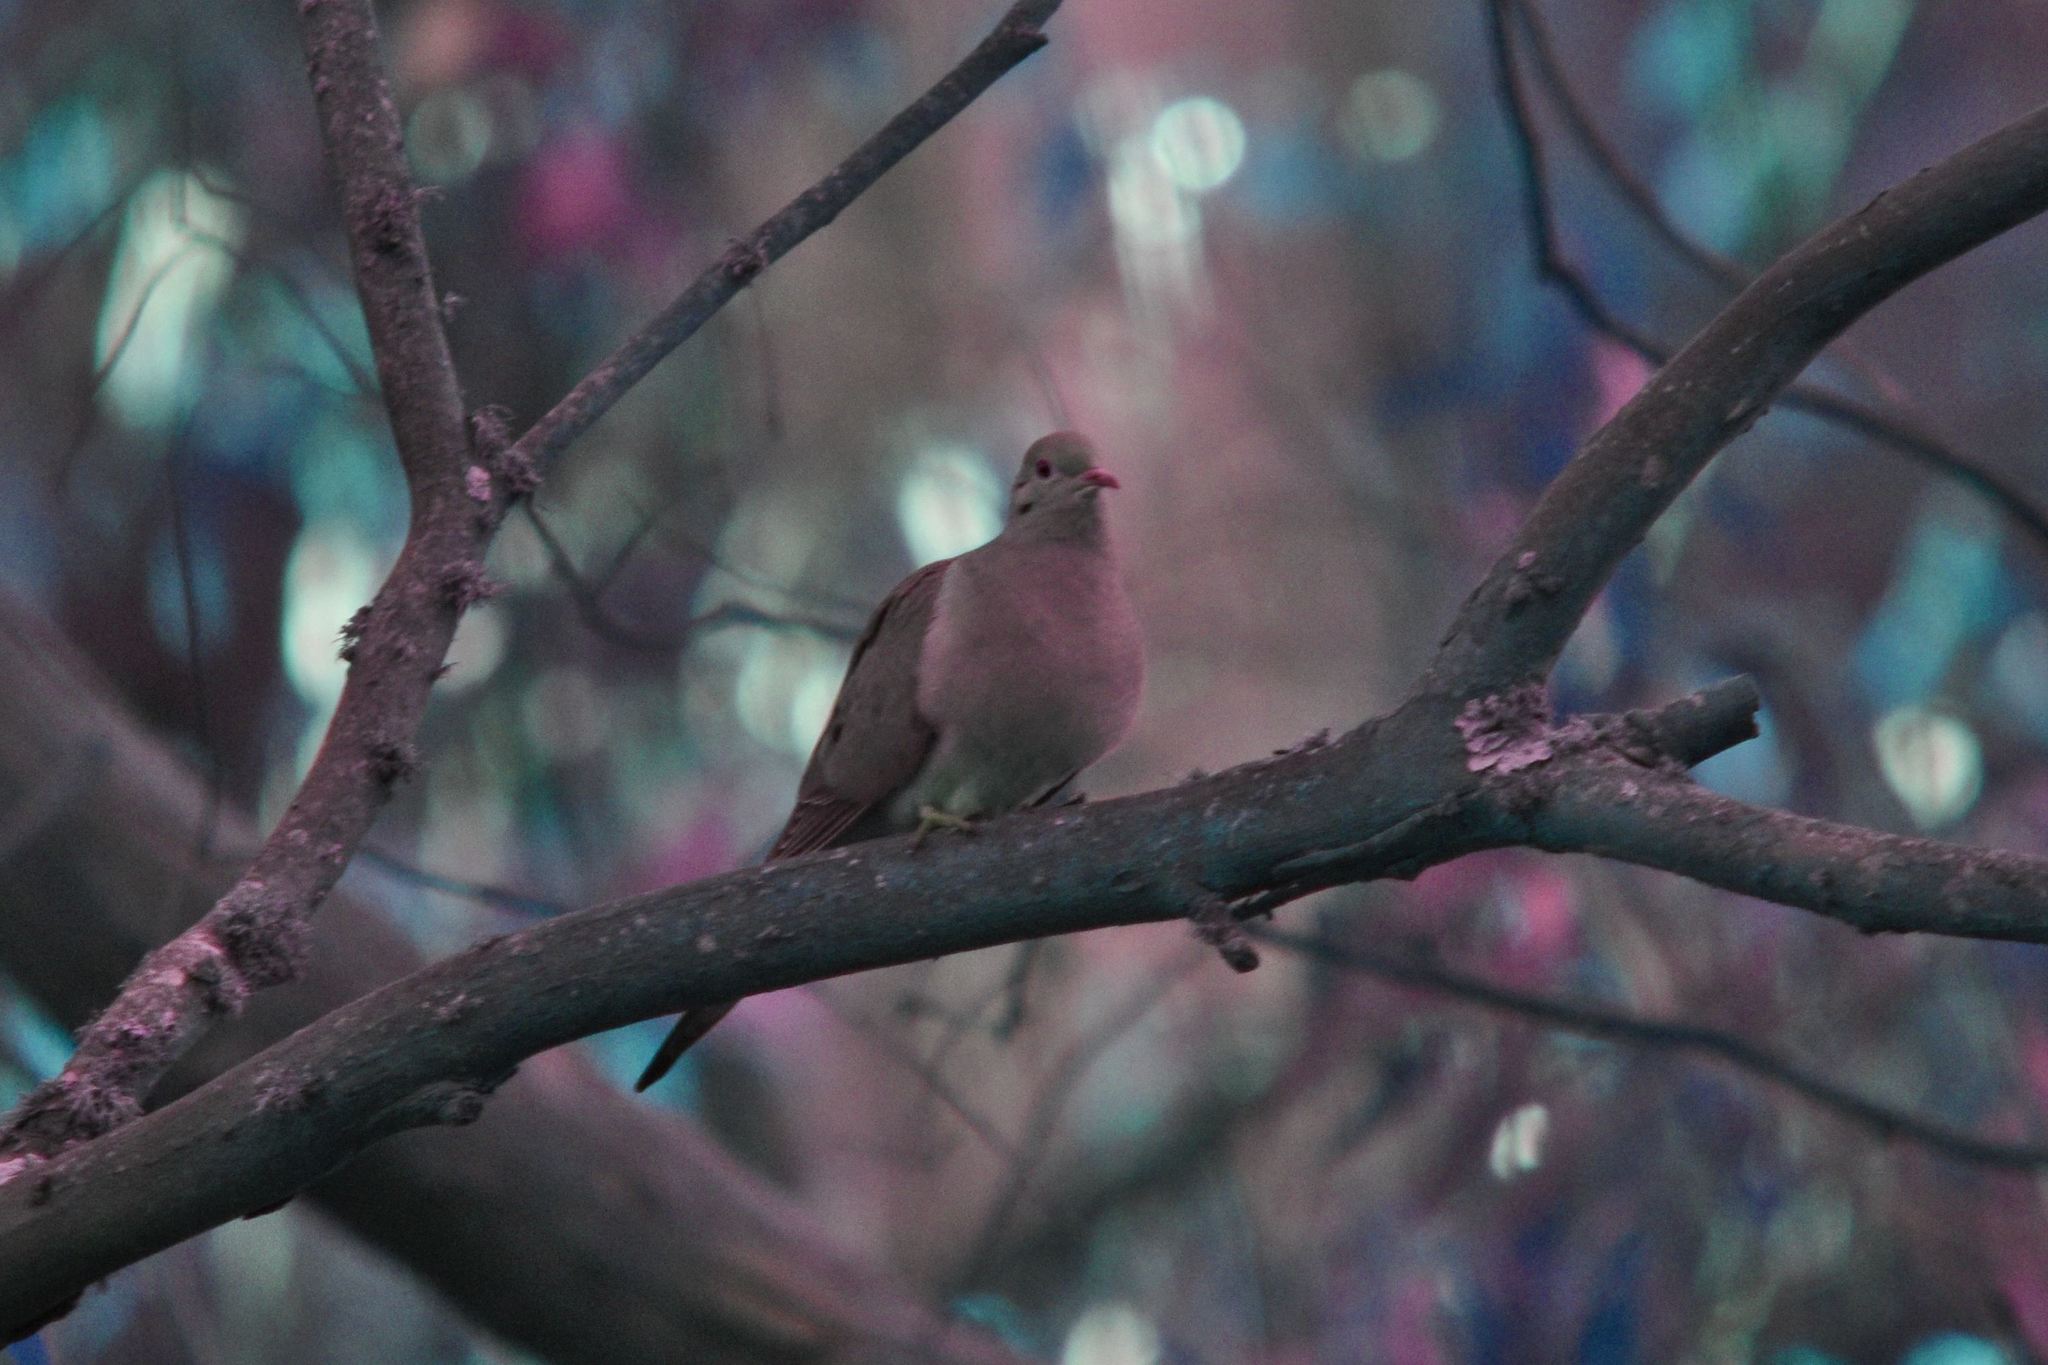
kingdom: Animalia
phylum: Chordata
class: Aves
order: Columbiformes
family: Columbidae
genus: Zenaida
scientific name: Zenaida macroura
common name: Mourning dove
